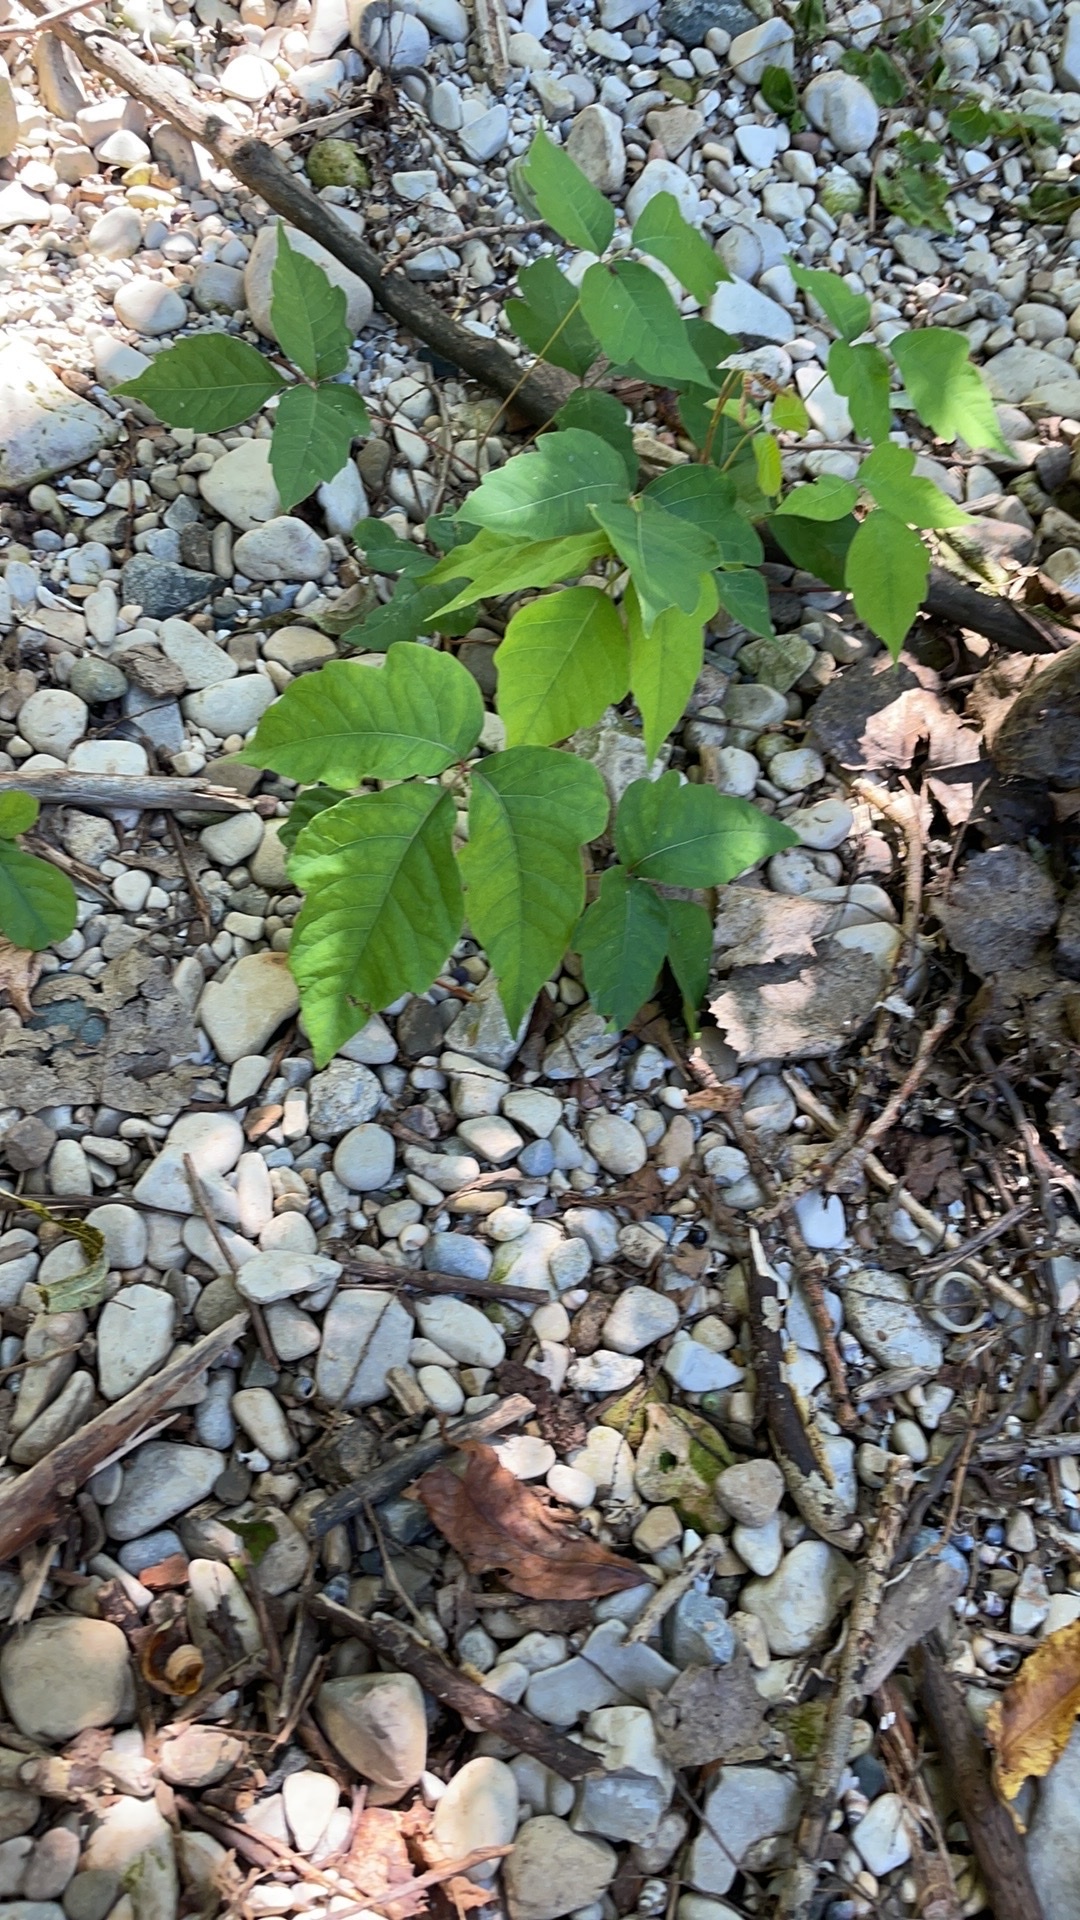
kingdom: Plantae
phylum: Tracheophyta
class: Magnoliopsida
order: Sapindales
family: Anacardiaceae
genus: Toxicodendron
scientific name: Toxicodendron radicans
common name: Poison ivy
